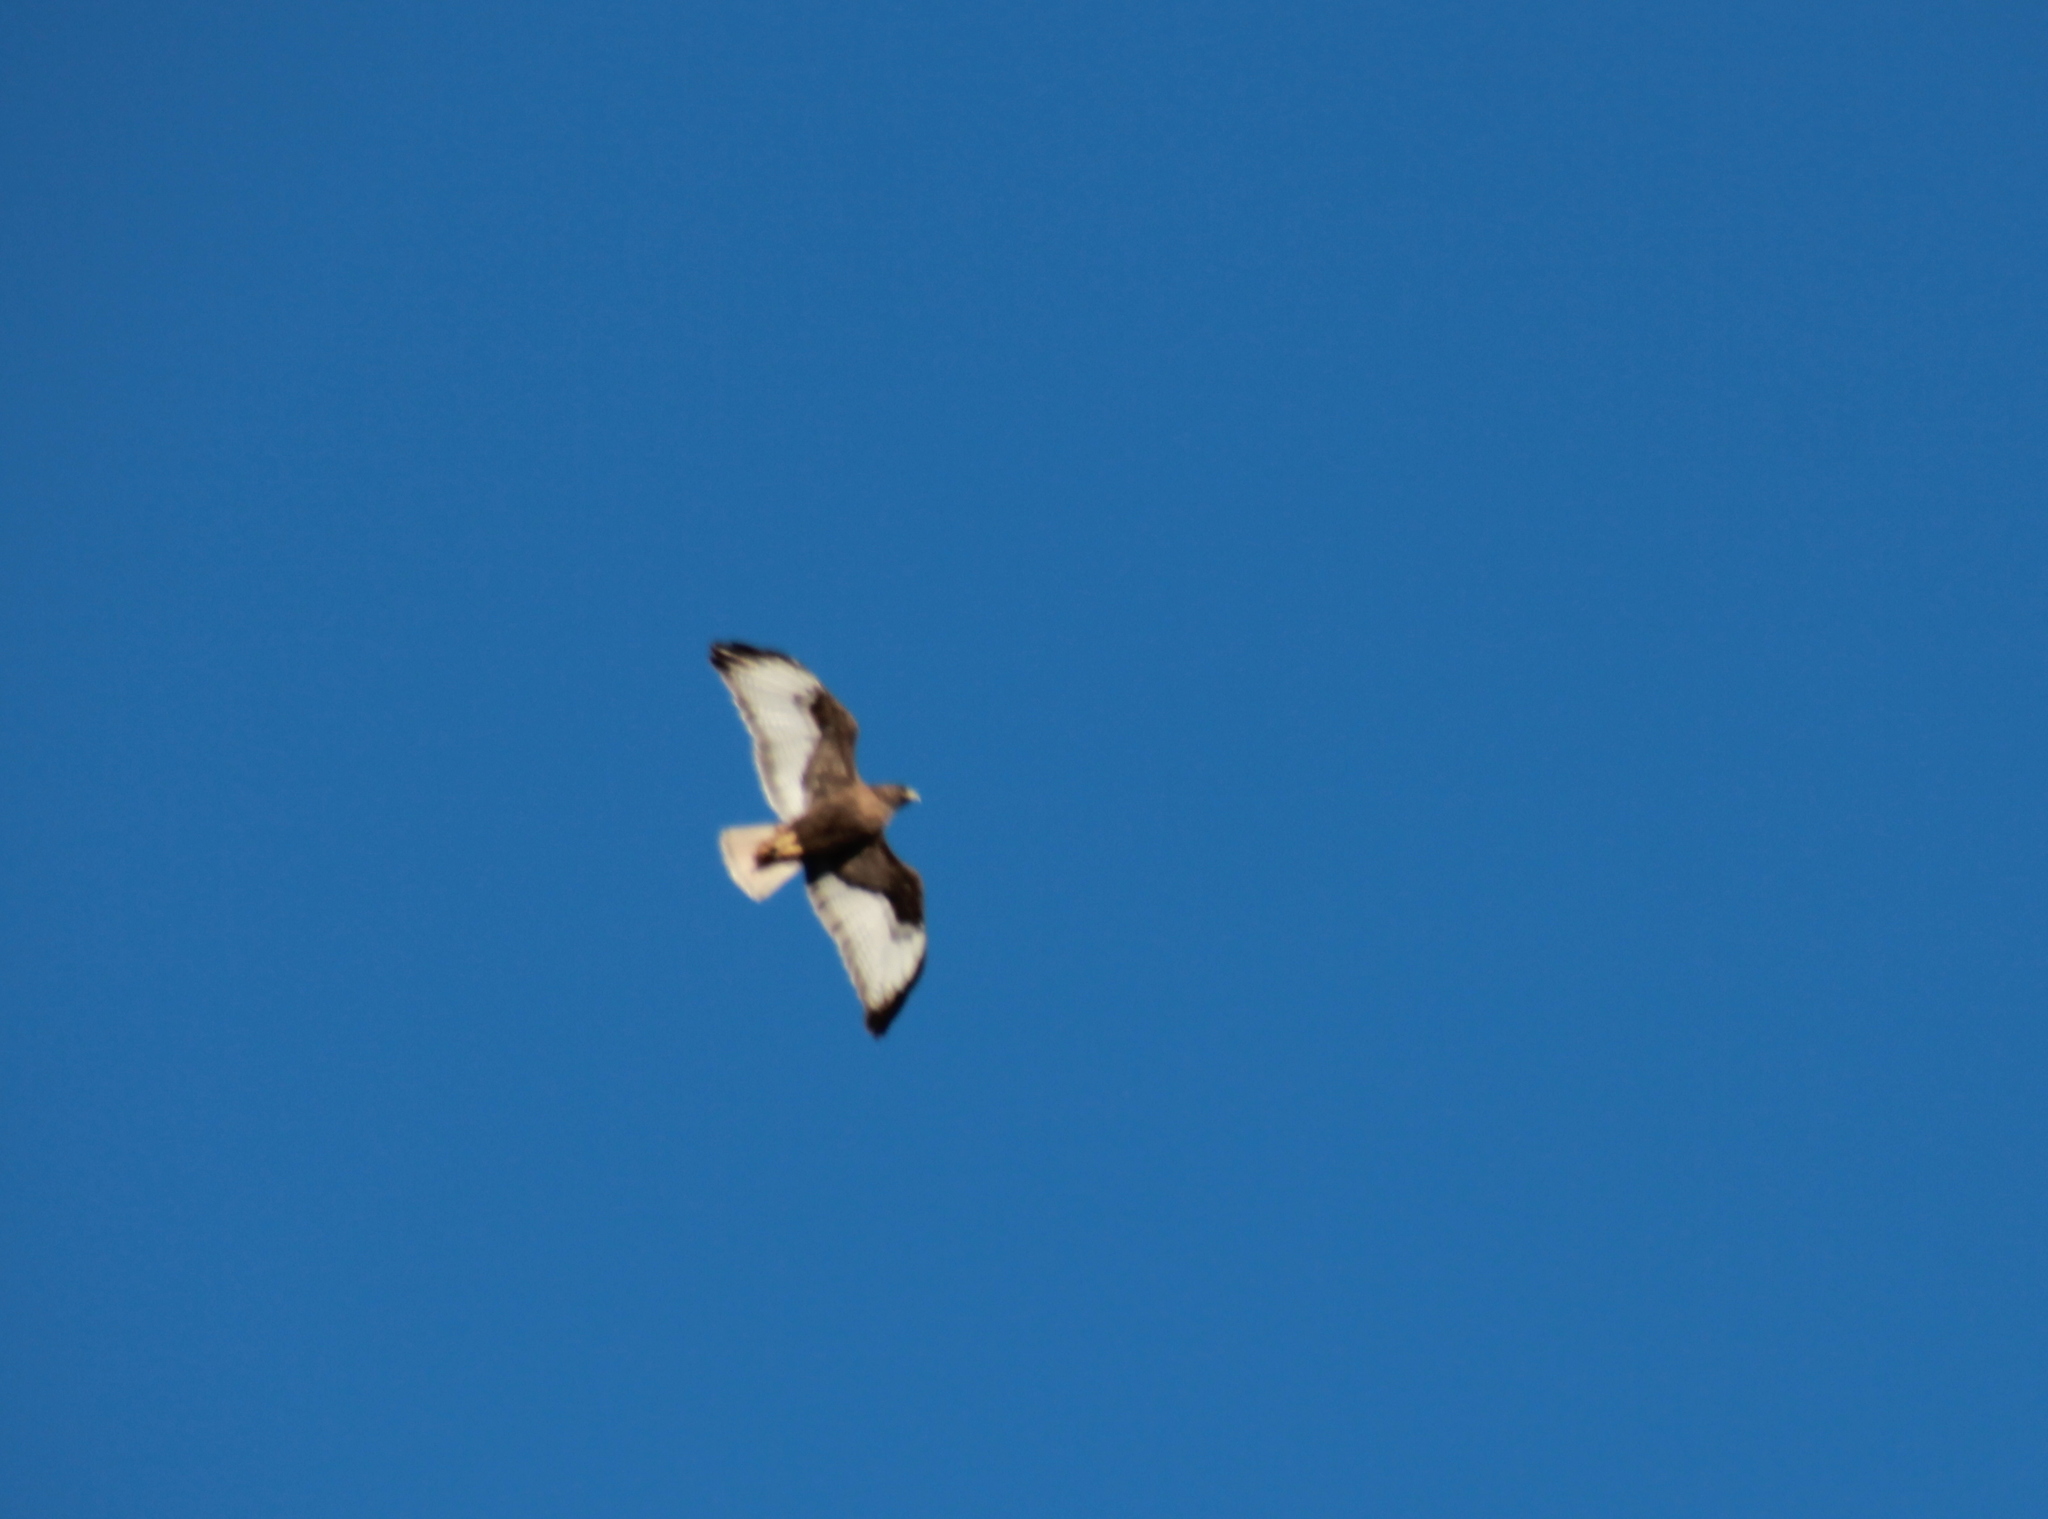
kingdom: Animalia
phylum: Chordata
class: Aves
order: Accipitriformes
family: Accipitridae
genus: Buteo
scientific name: Buteo jamaicensis
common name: Red-tailed hawk
